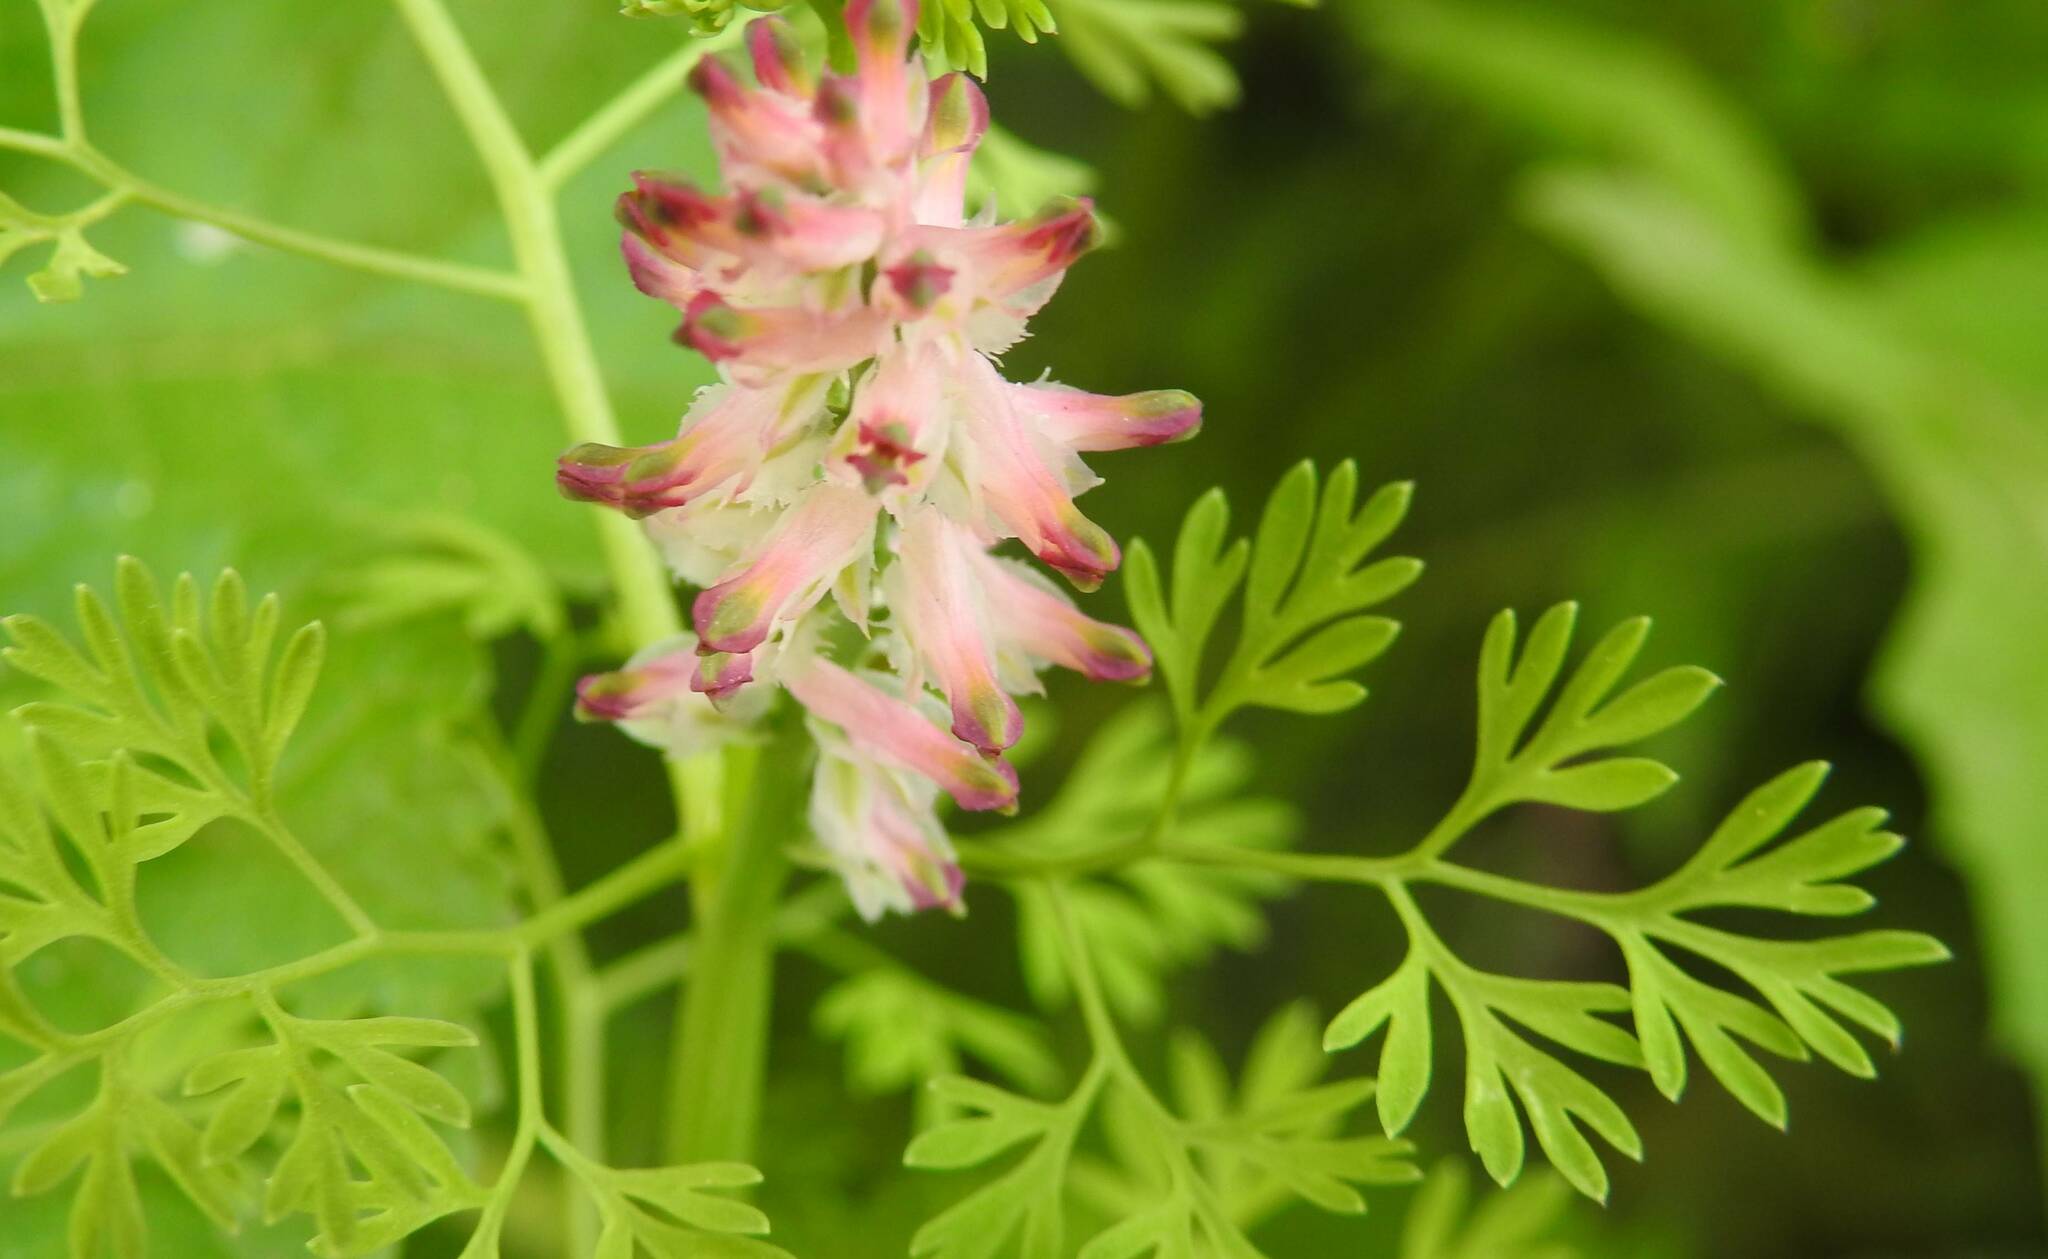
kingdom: Plantae
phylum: Tracheophyta
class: Magnoliopsida
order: Ranunculales
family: Papaveraceae
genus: Fumaria
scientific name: Fumaria densiflora
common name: Dense-flowered fumitory
